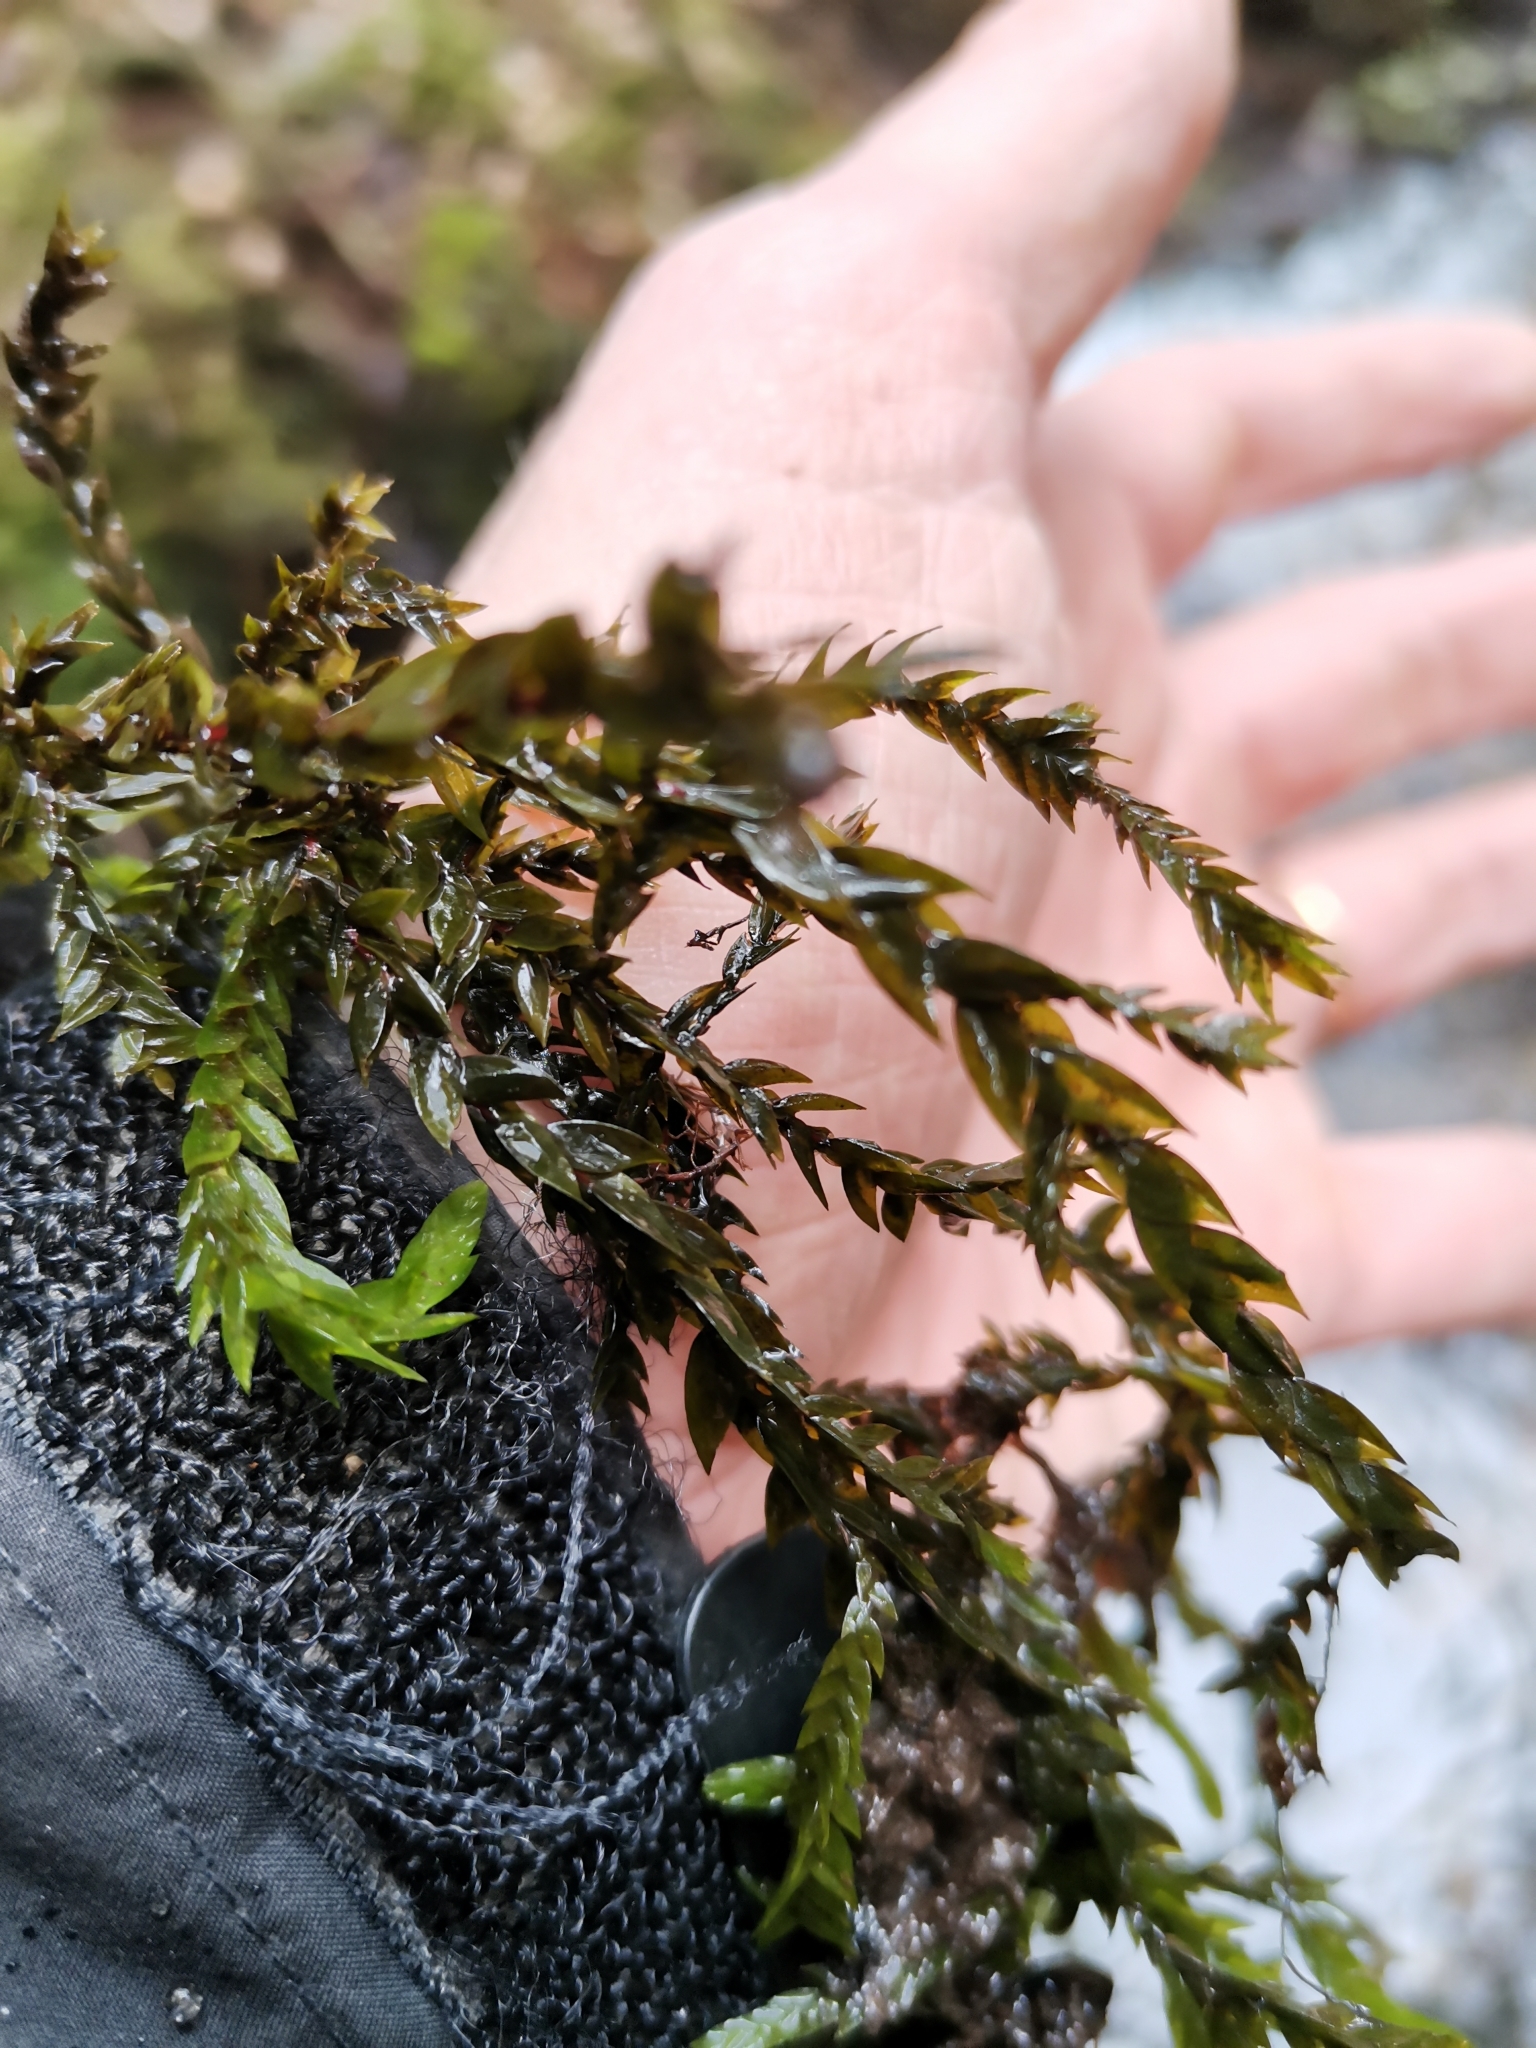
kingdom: Plantae
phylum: Bryophyta
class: Bryopsida
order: Hypnales
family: Fontinalaceae
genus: Fontinalis
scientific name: Fontinalis antipyretica
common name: Greater water-moss
